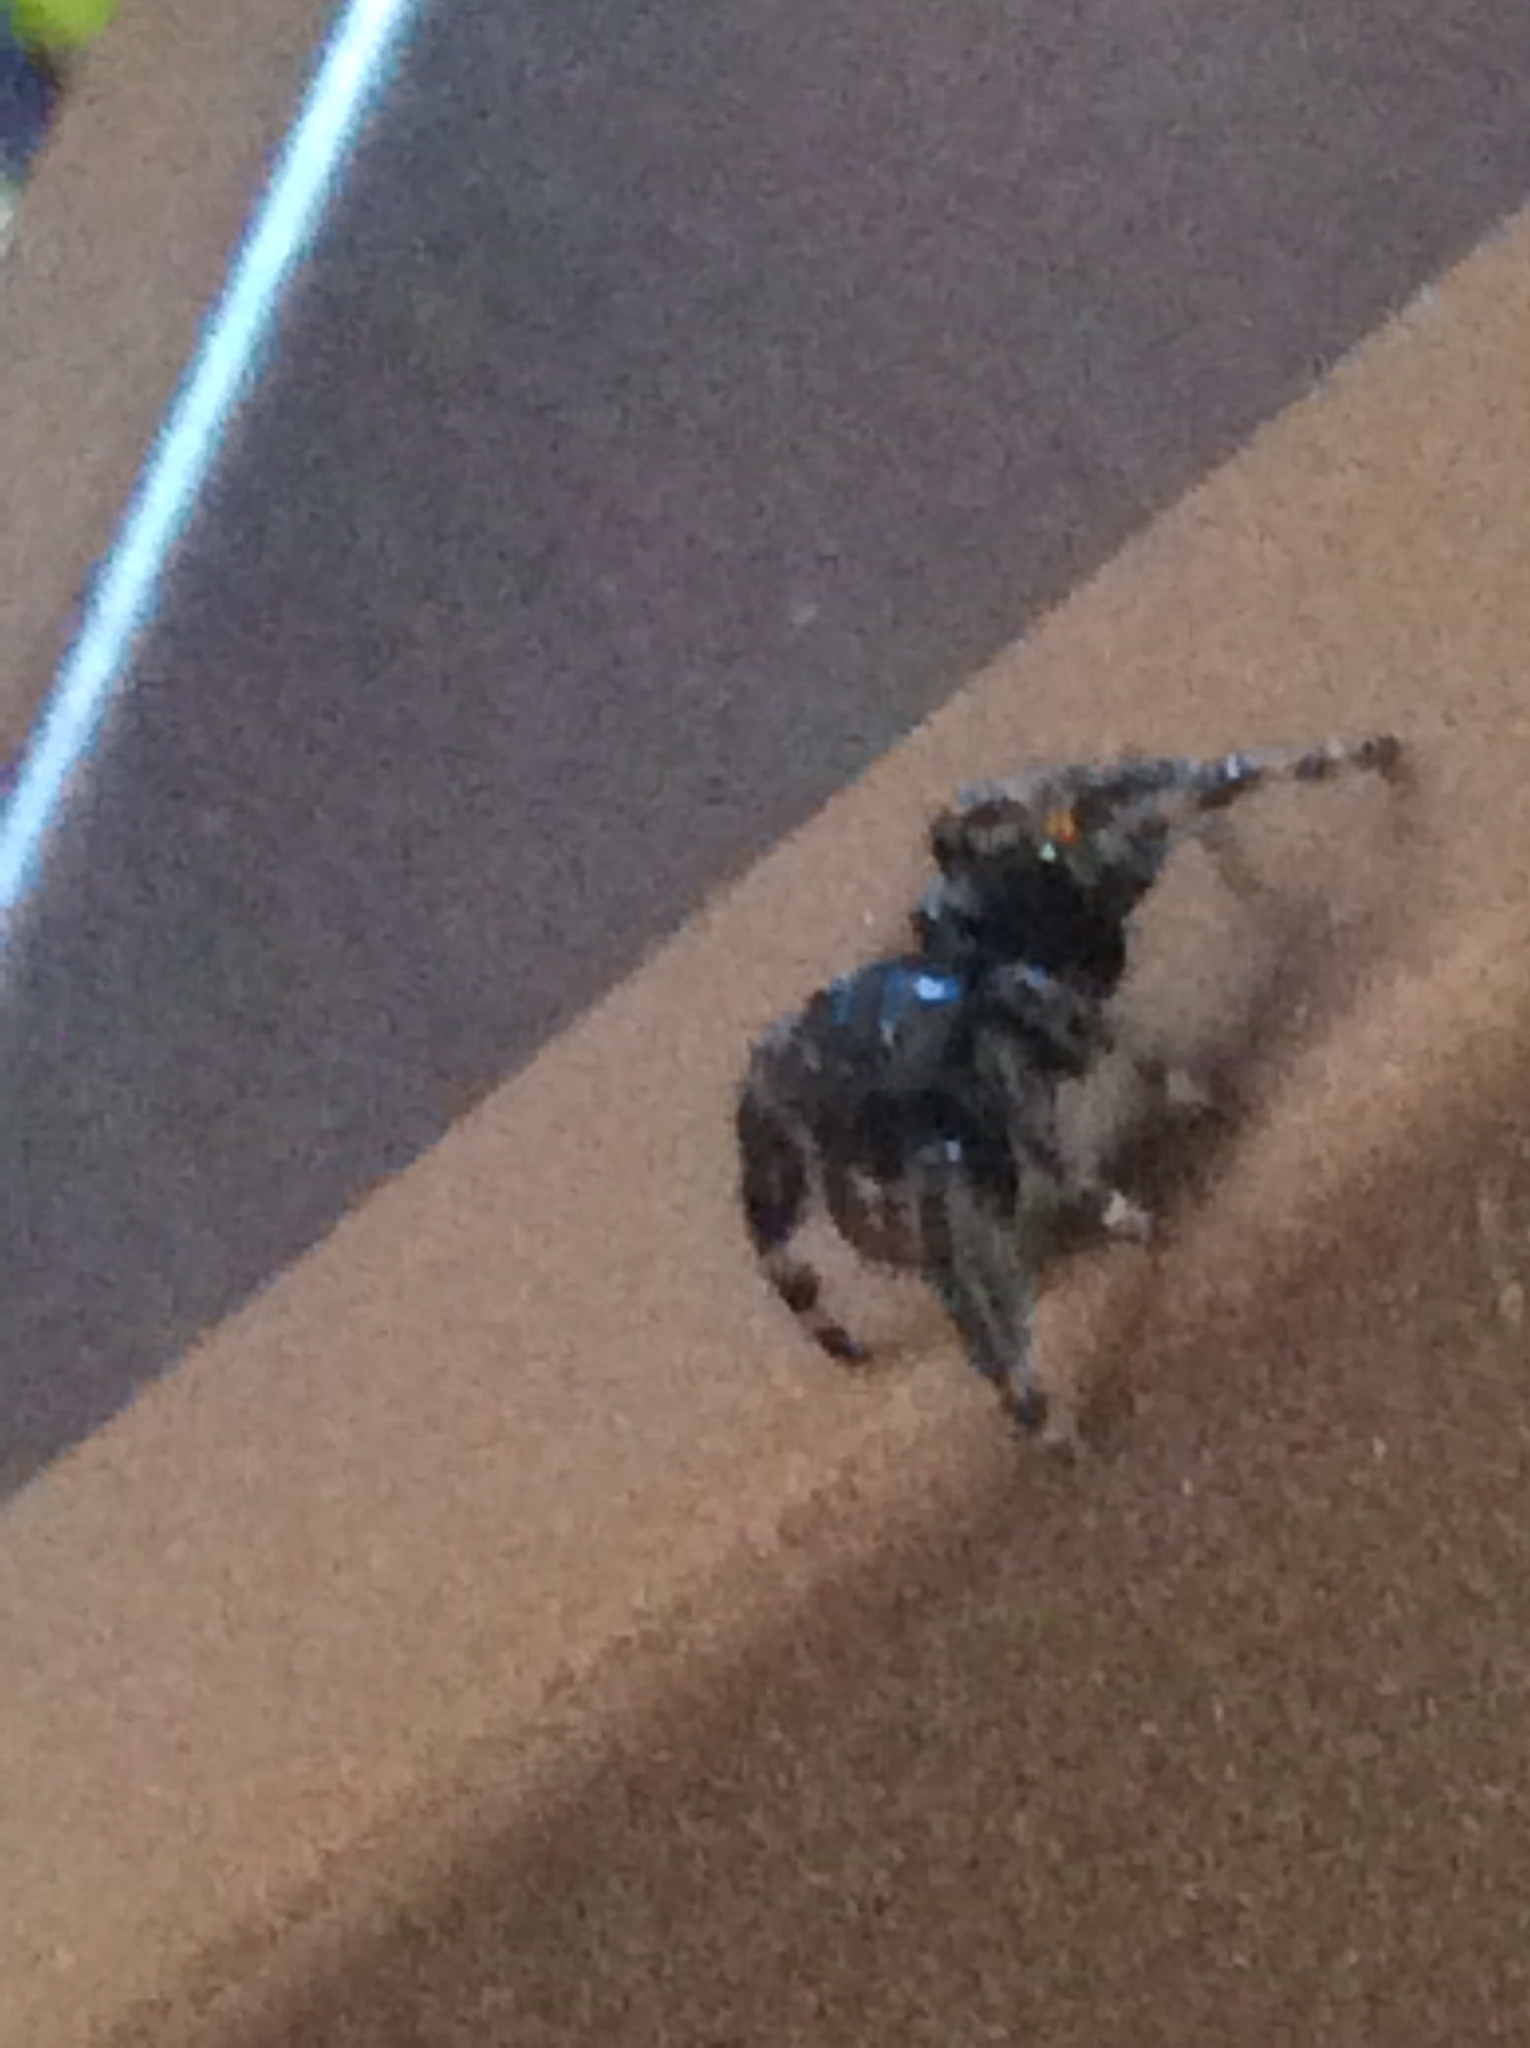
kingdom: Animalia
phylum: Arthropoda
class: Arachnida
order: Araneae
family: Salticidae
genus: Phidippus
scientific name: Phidippus audax
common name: Bold jumper
